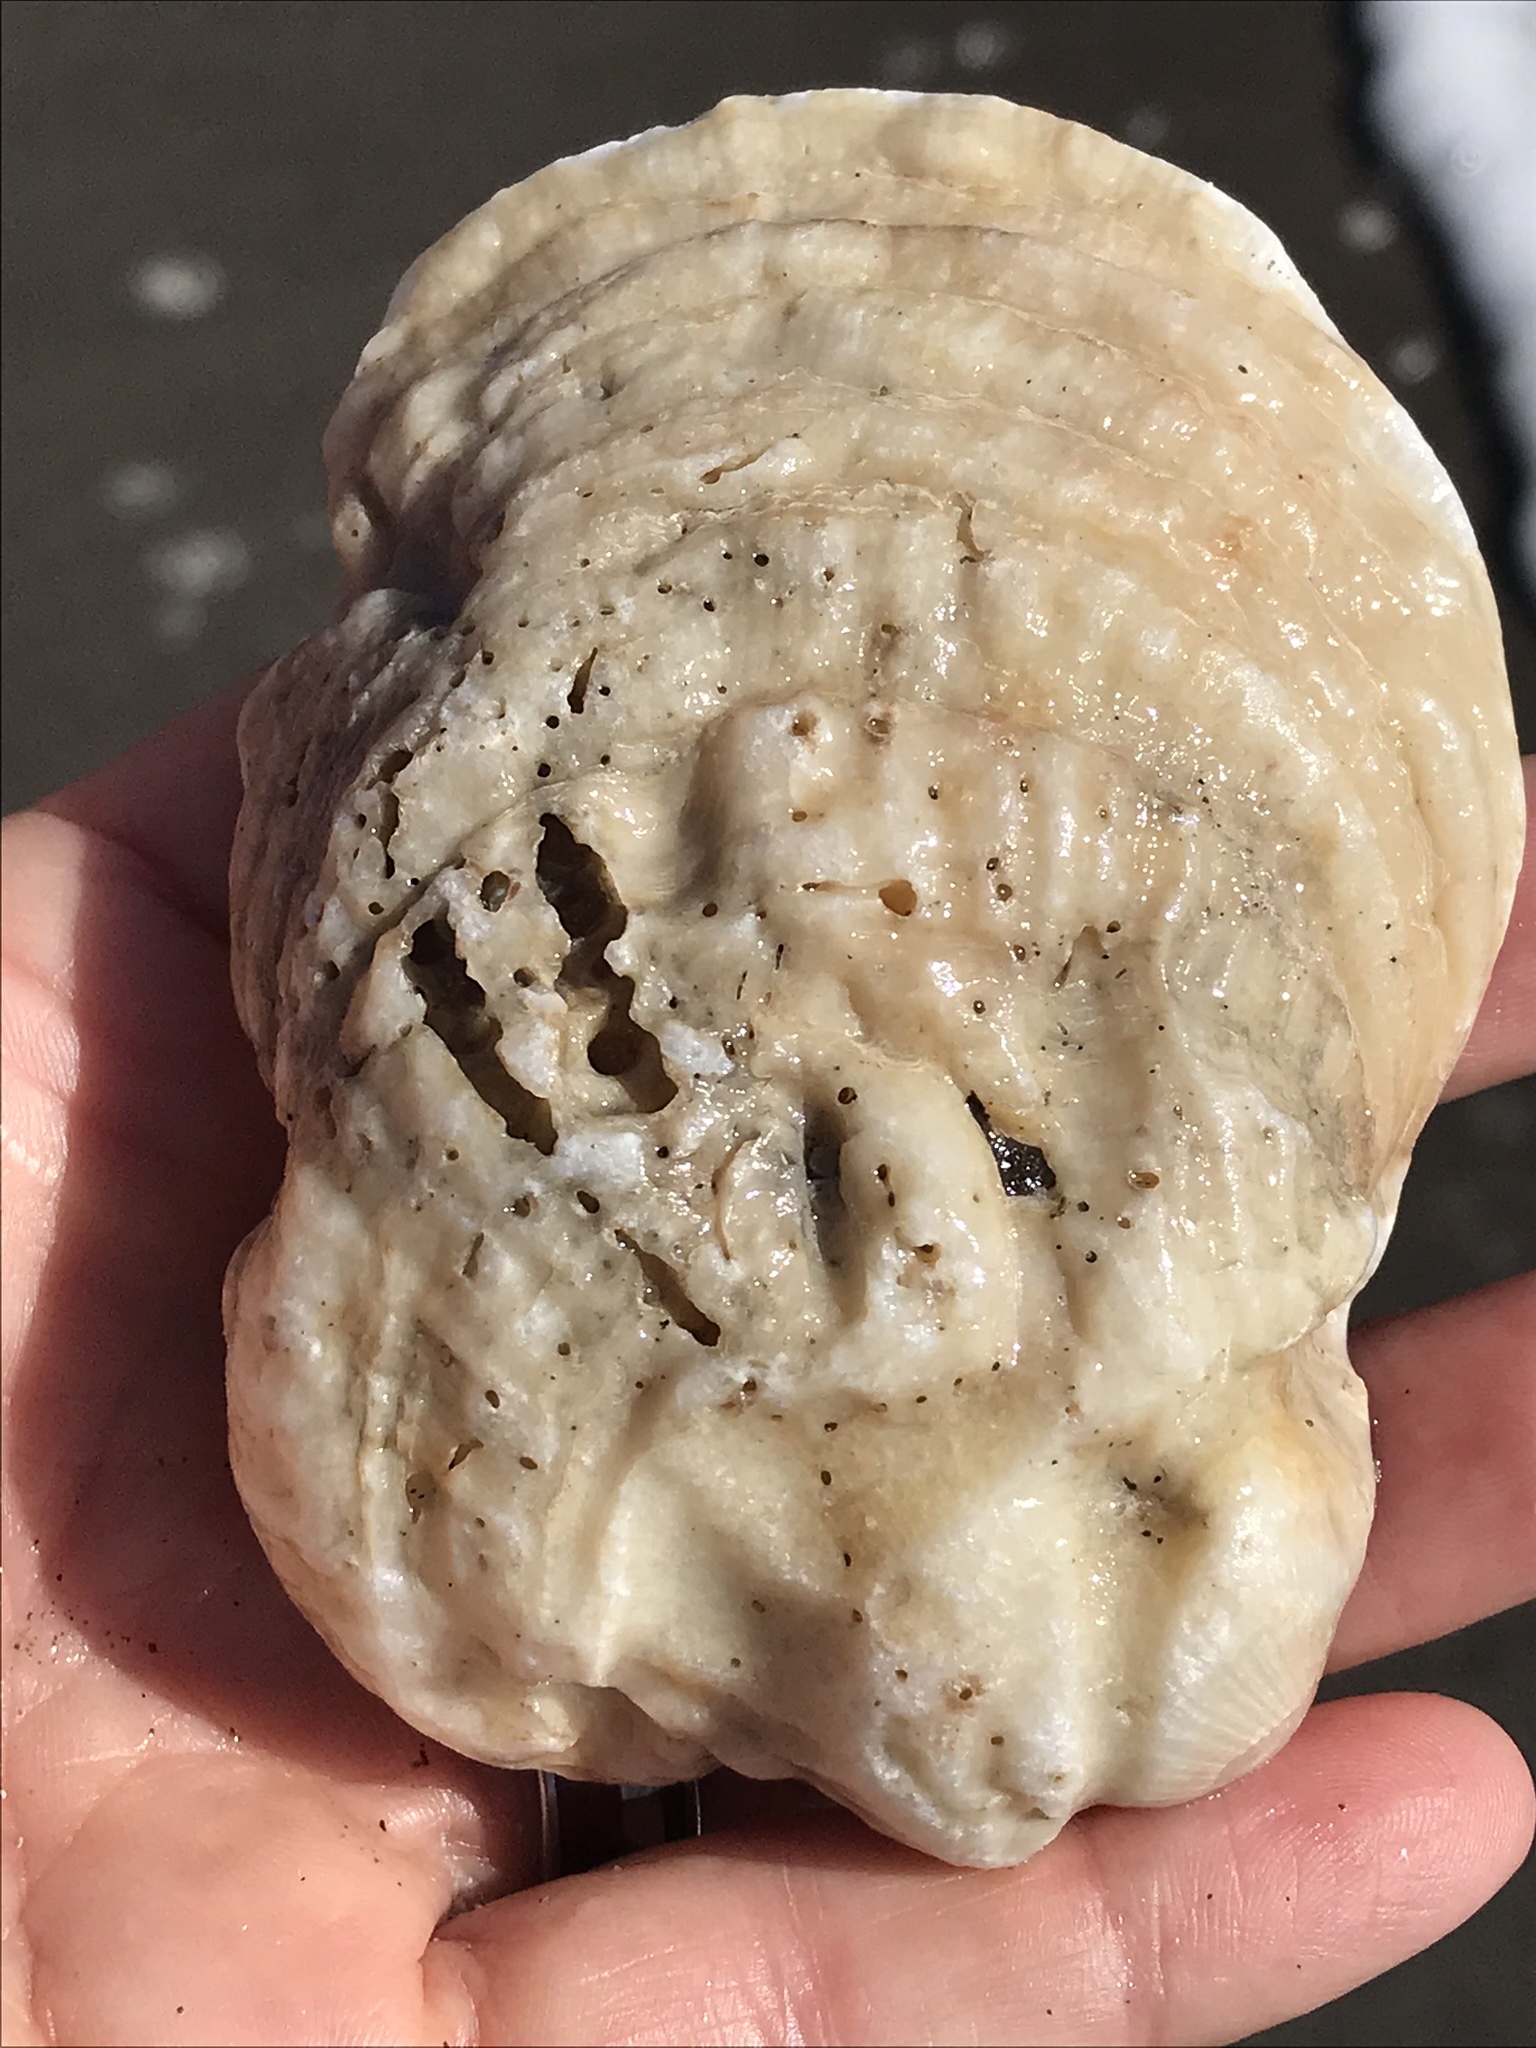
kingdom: Animalia
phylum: Mollusca
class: Bivalvia
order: Pectinida
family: Pectinidae
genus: Crassadoma
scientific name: Crassadoma gigantea
